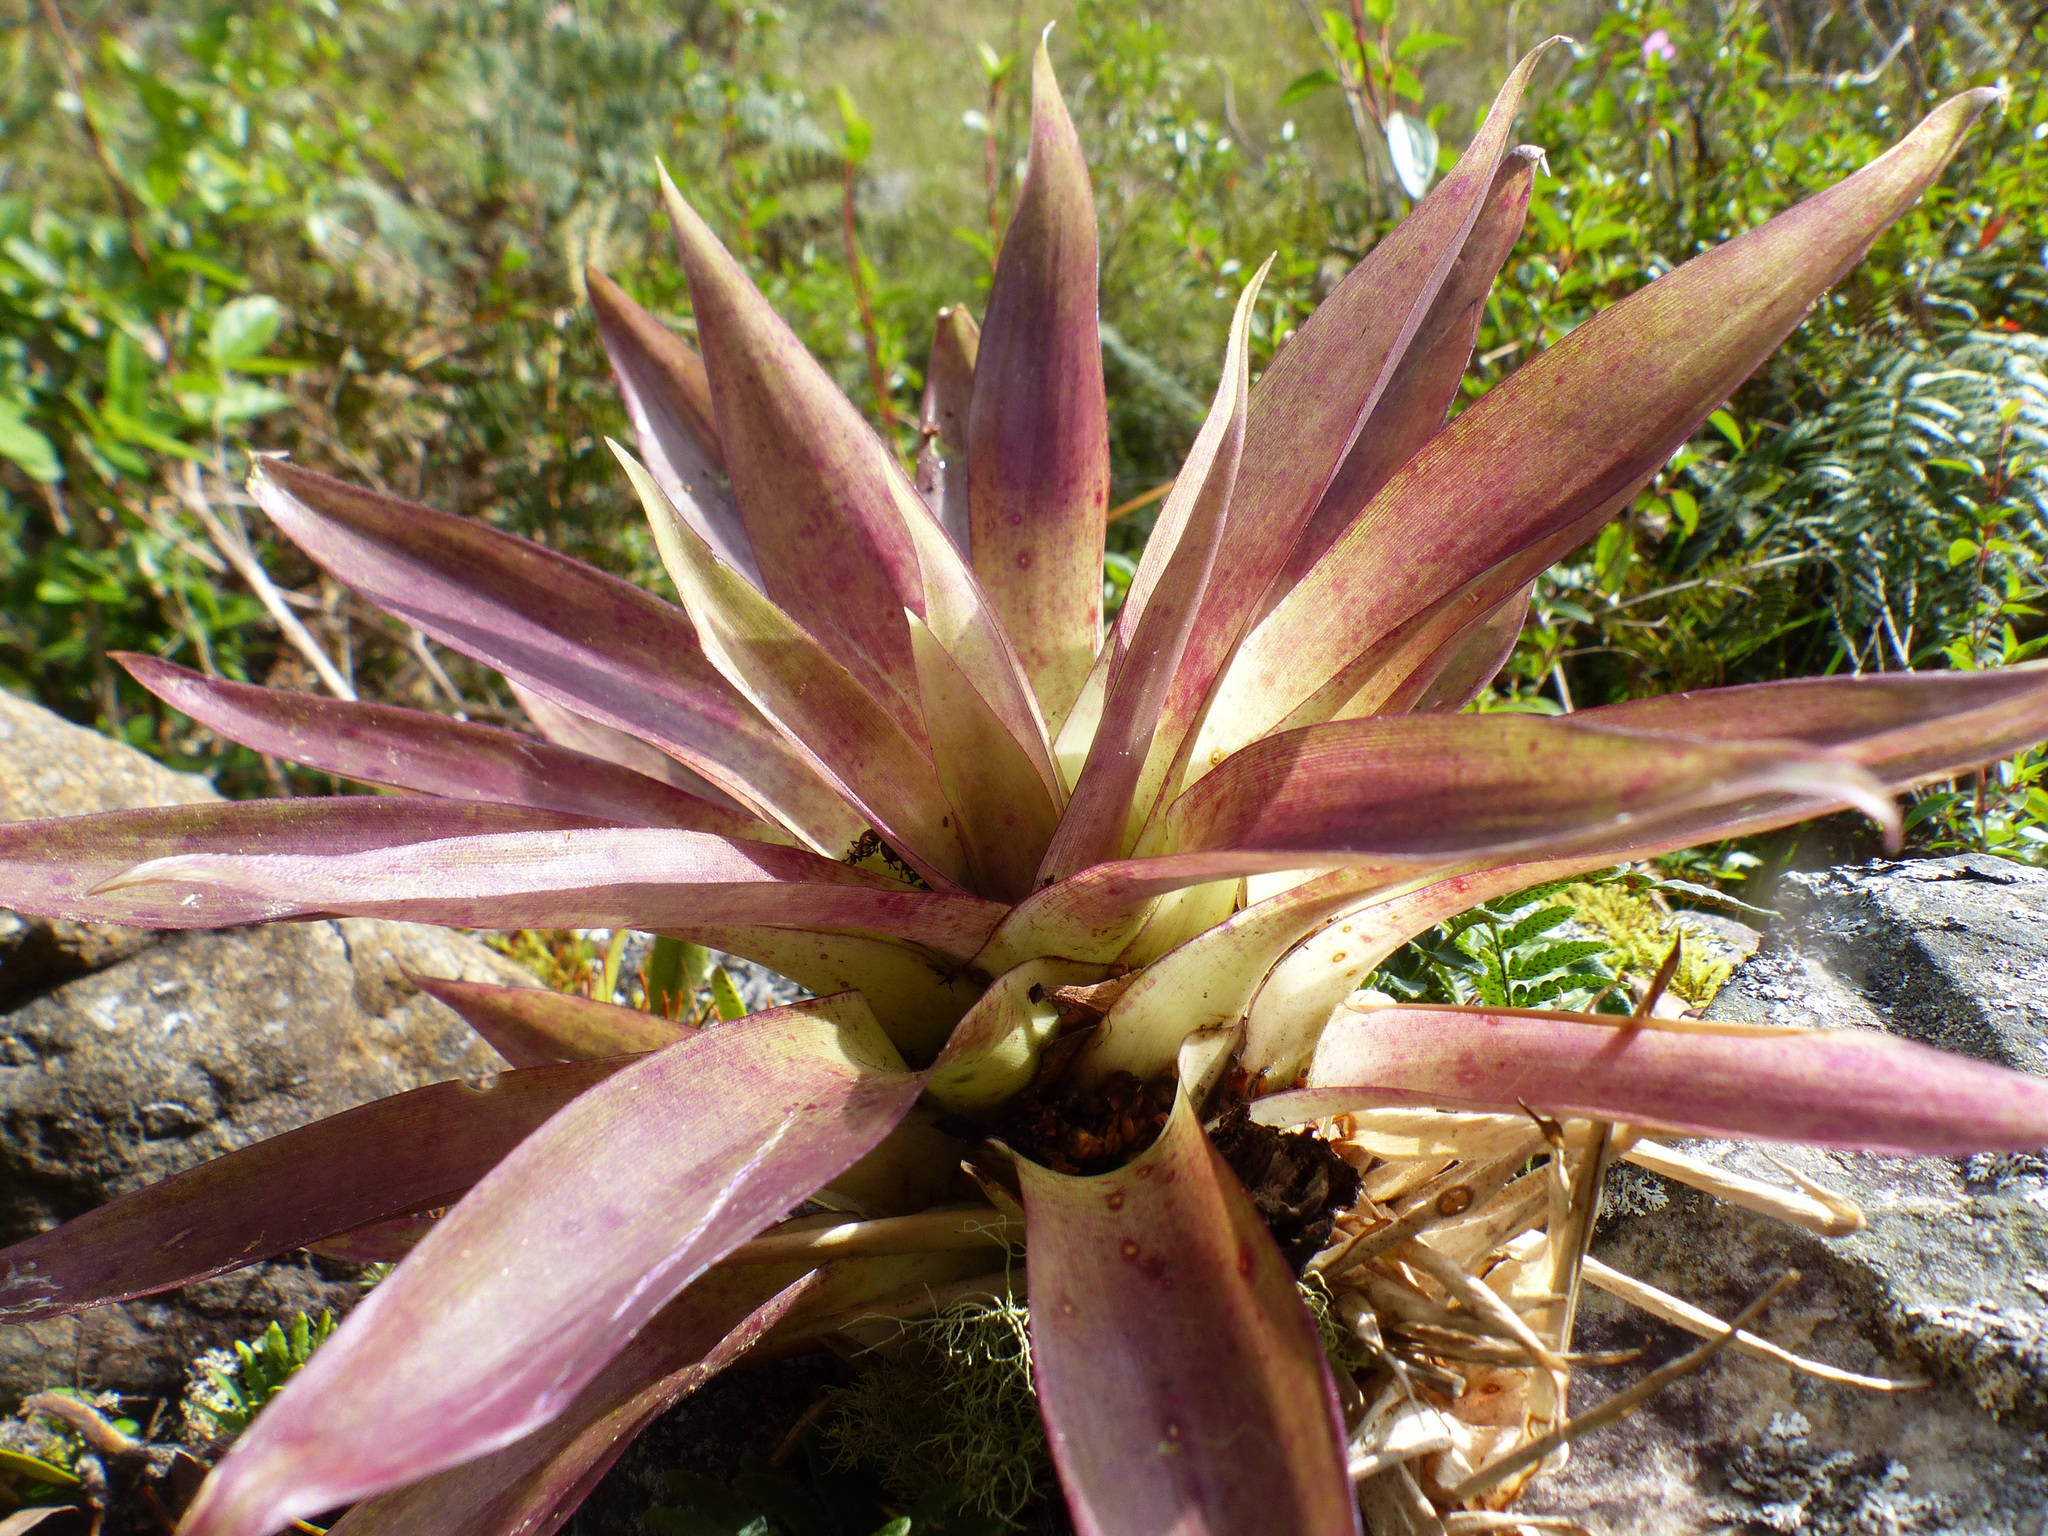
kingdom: Plantae
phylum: Tracheophyta
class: Liliopsida
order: Poales
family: Bromeliaceae
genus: Tillandsia
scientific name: Tillandsia biflora
